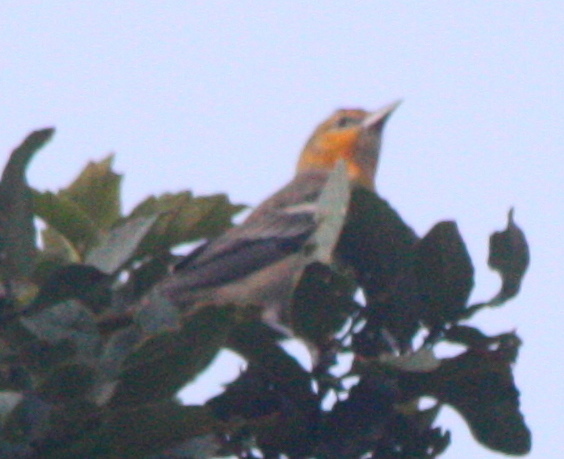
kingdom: Animalia
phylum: Chordata
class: Aves
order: Passeriformes
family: Icteridae
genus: Icterus
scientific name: Icterus bullockii
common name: Bullock's oriole
